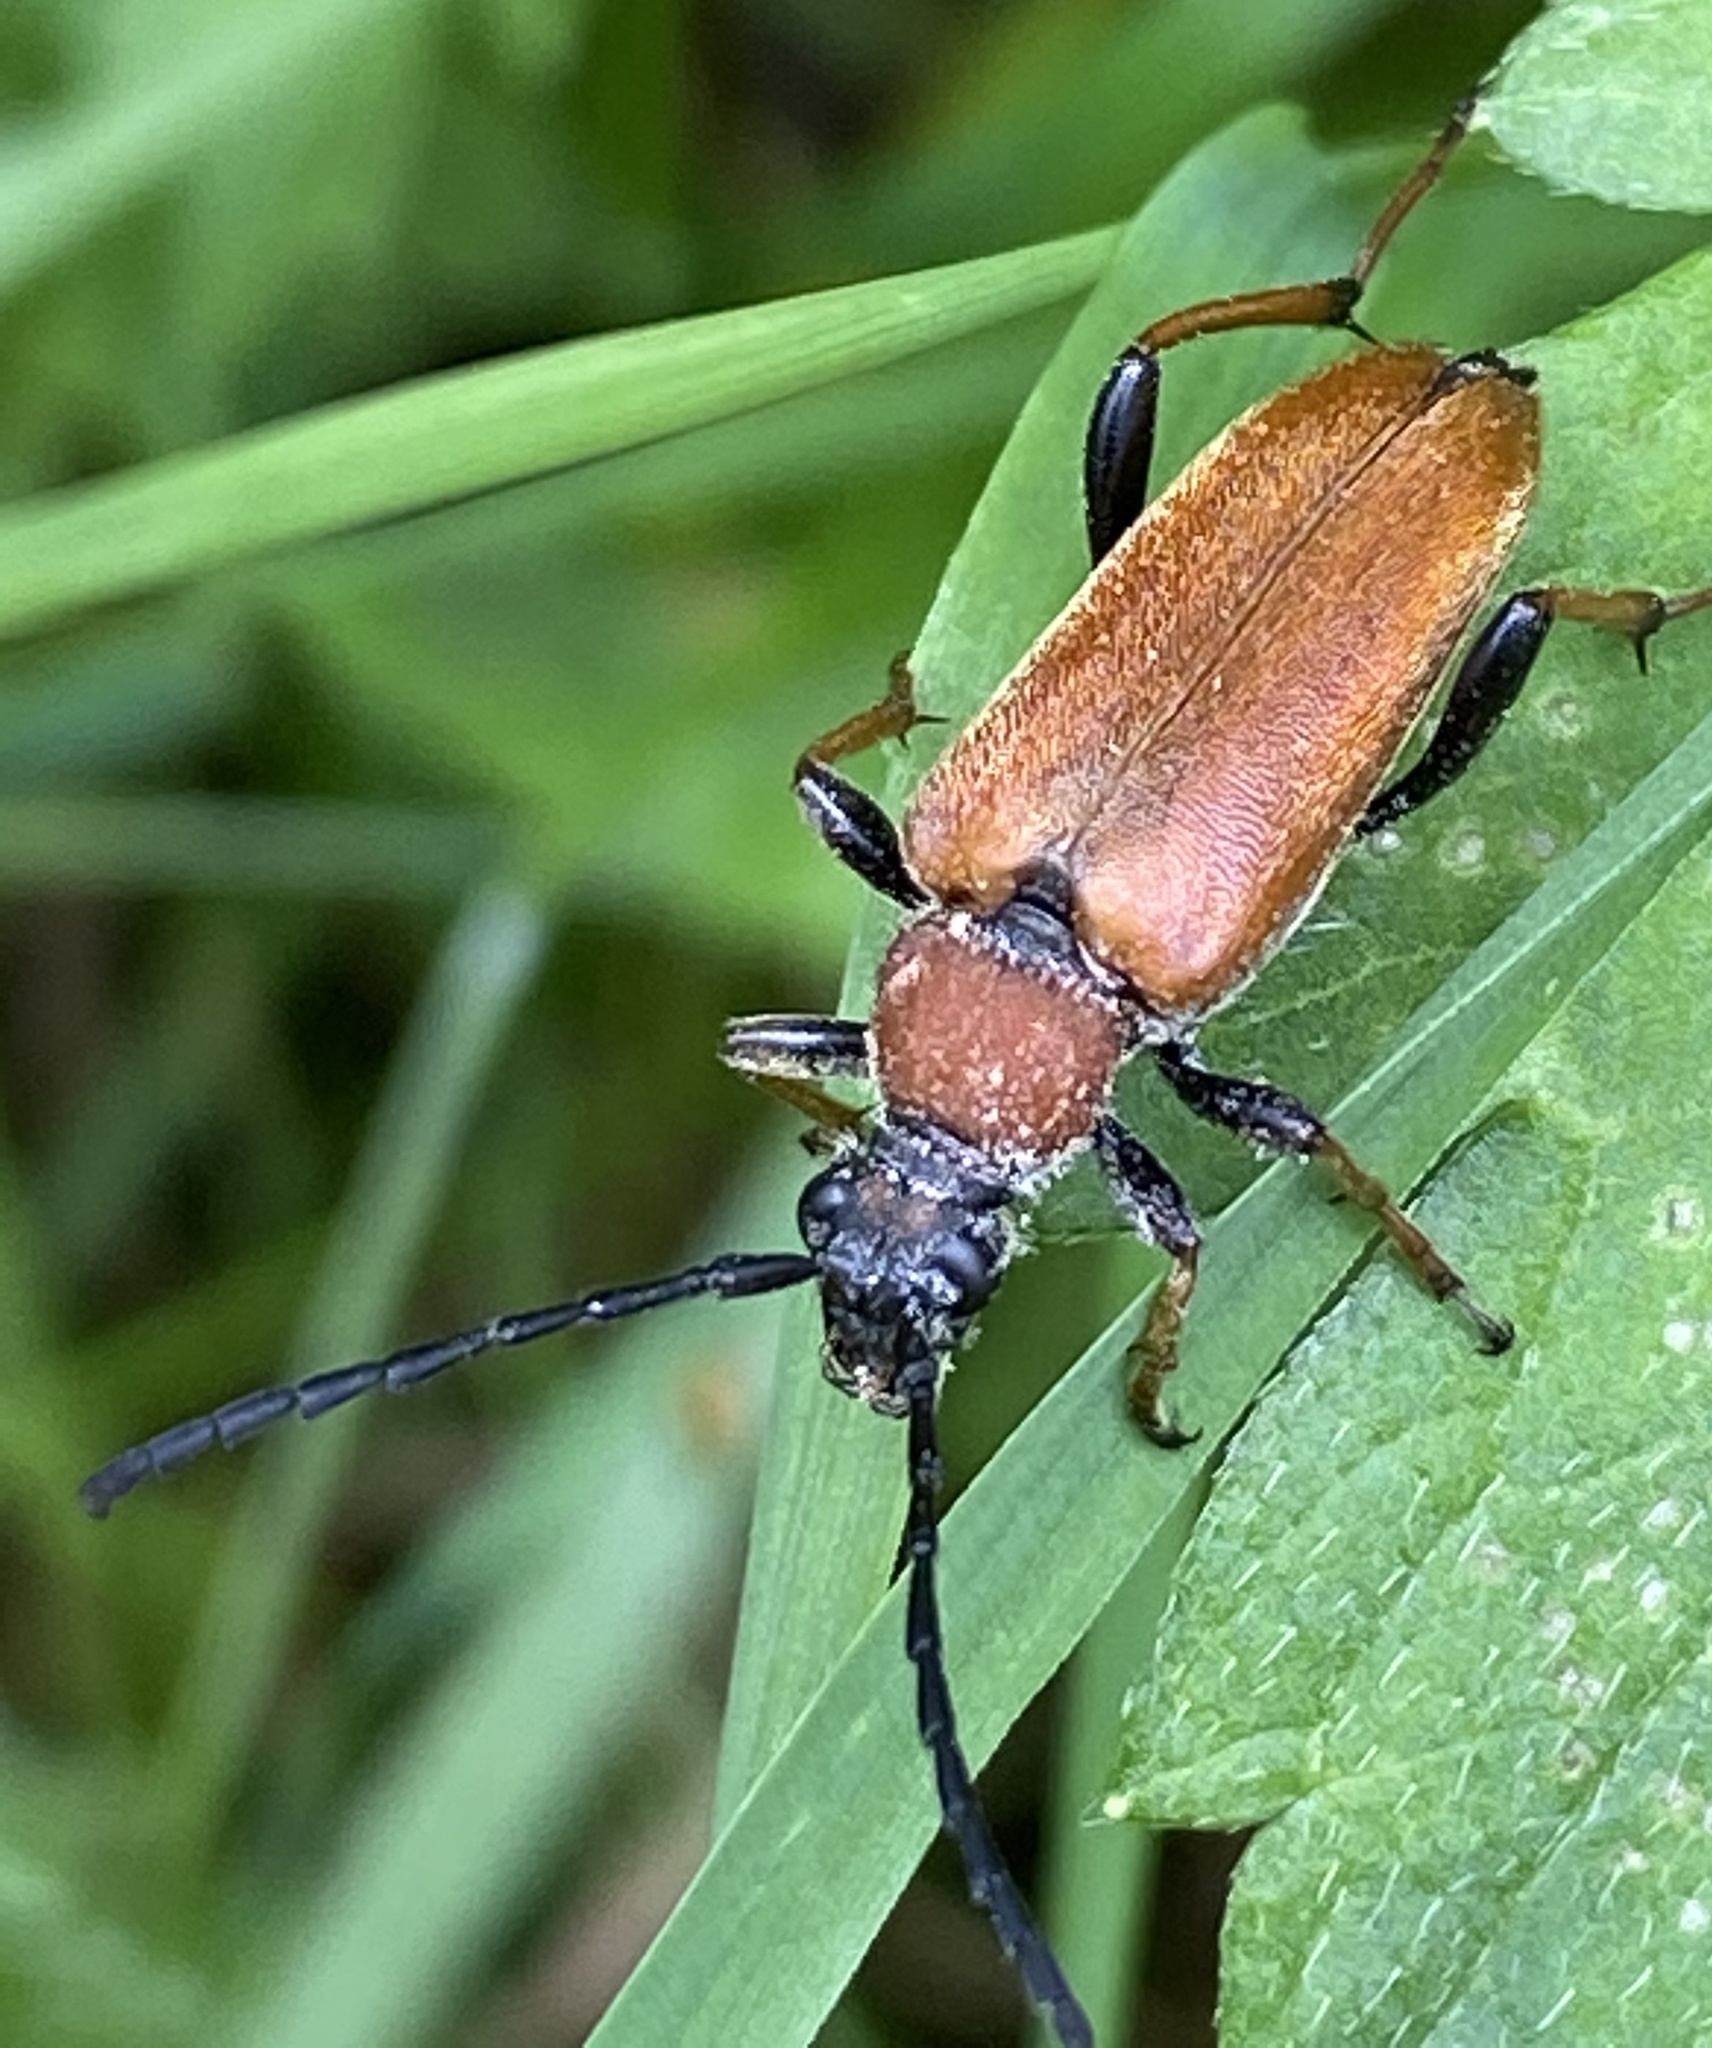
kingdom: Animalia
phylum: Arthropoda
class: Insecta
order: Coleoptera
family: Cerambycidae
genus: Stictoleptura
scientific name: Stictoleptura rubra
